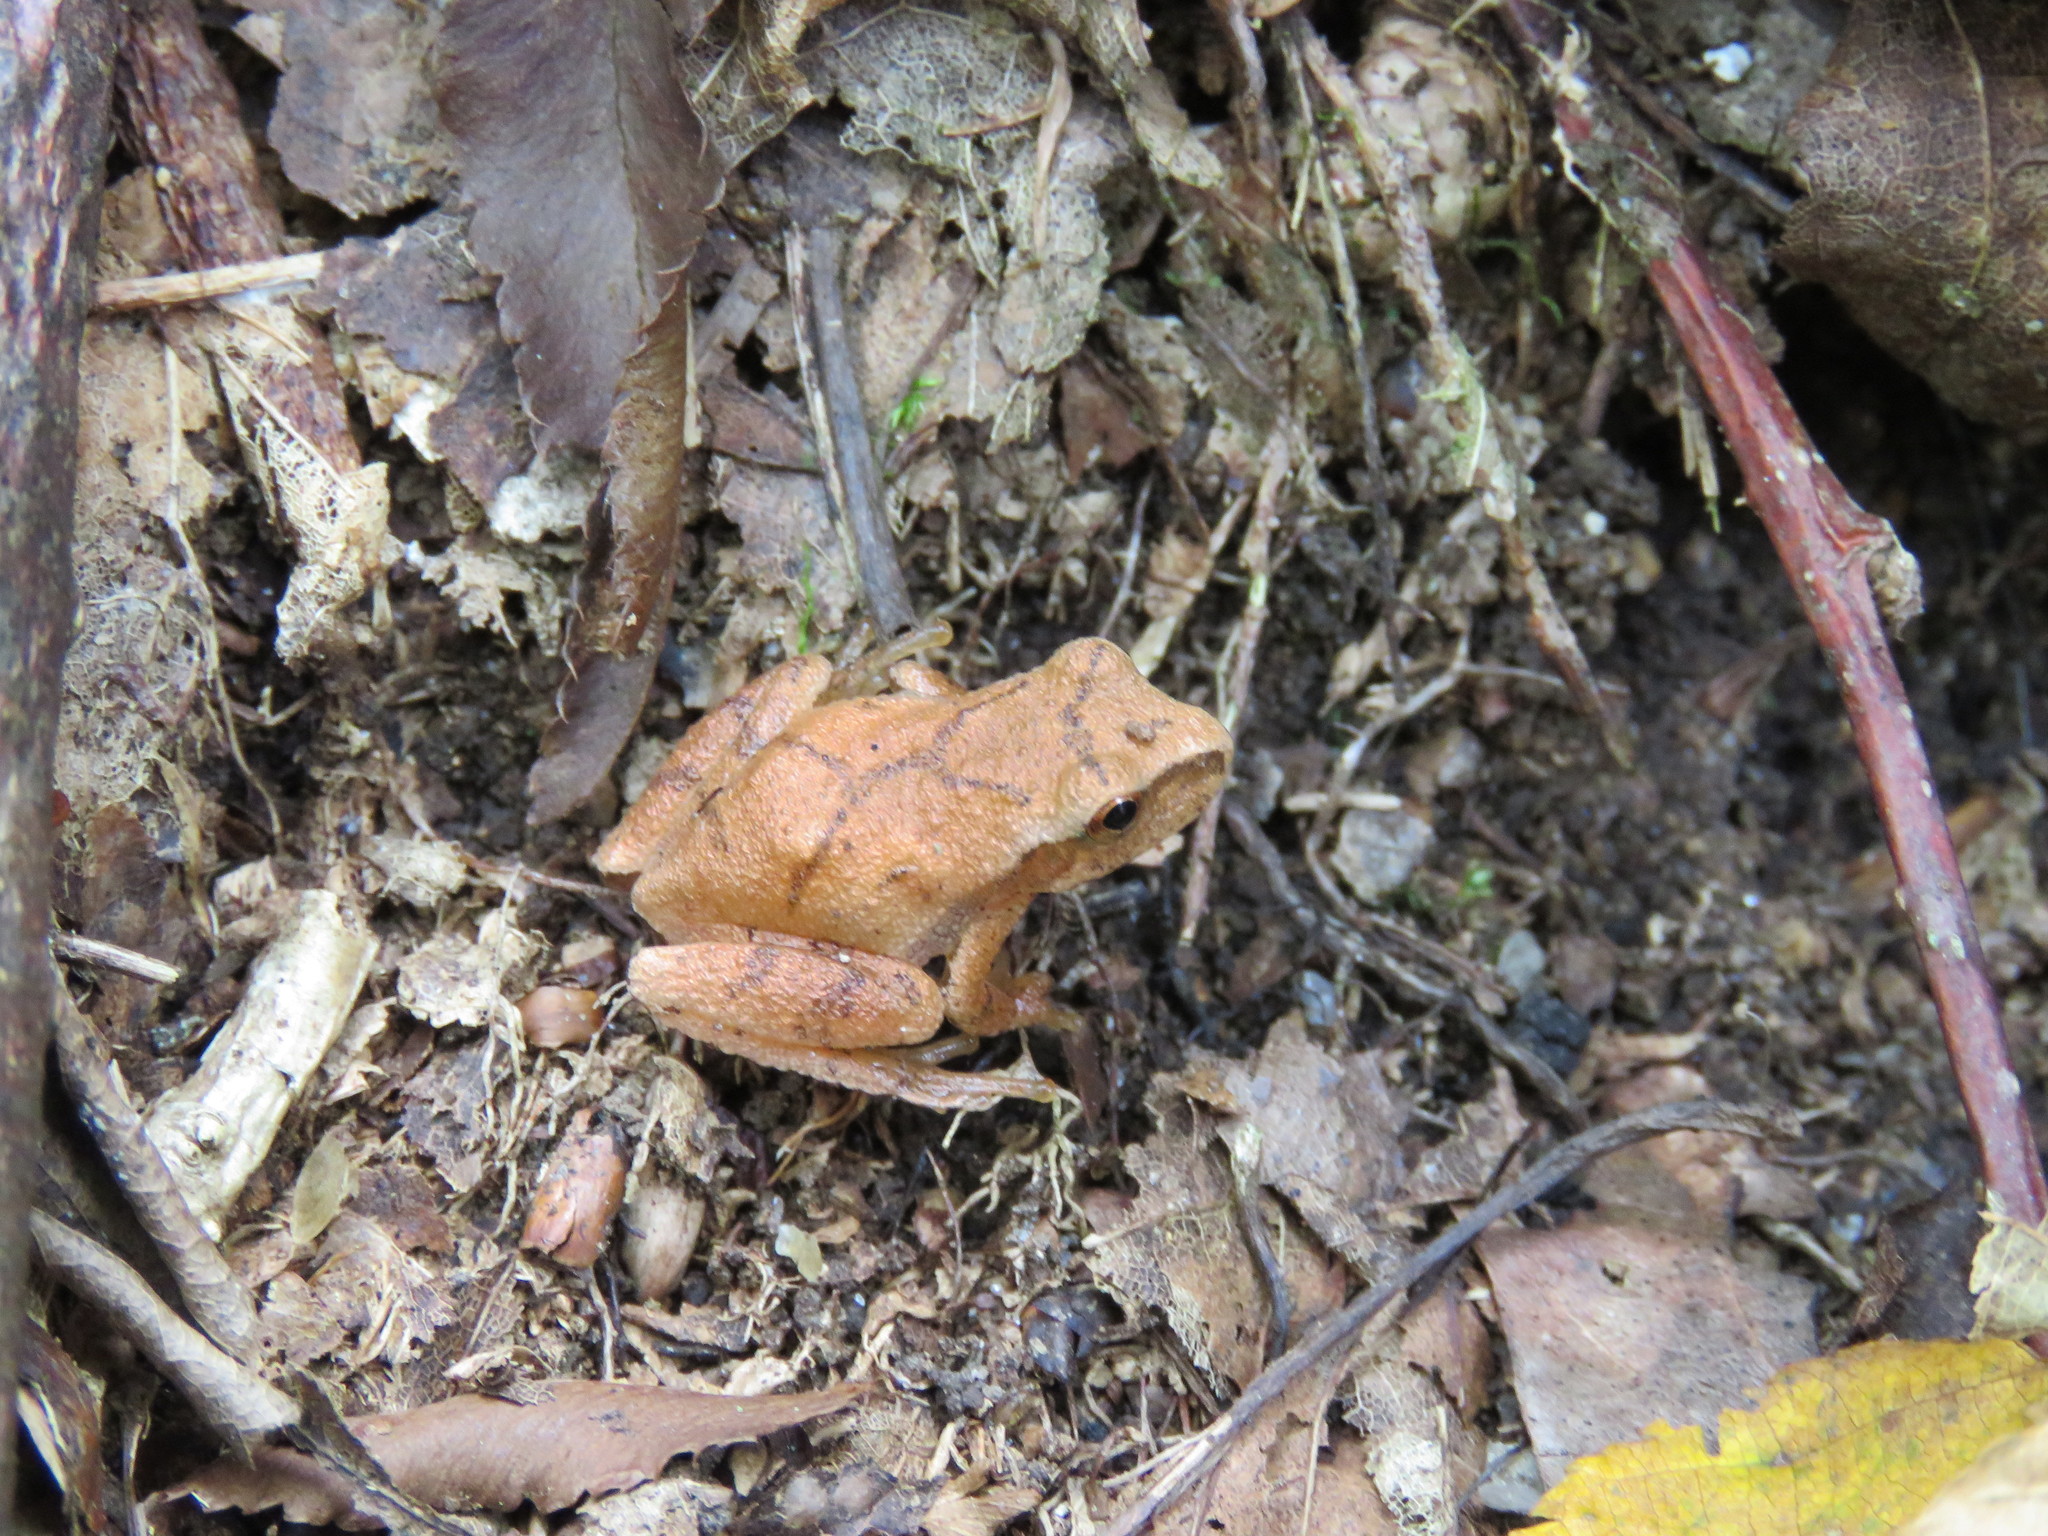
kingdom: Animalia
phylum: Chordata
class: Amphibia
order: Anura
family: Hylidae
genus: Pseudacris
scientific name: Pseudacris crucifer
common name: Spring peeper
